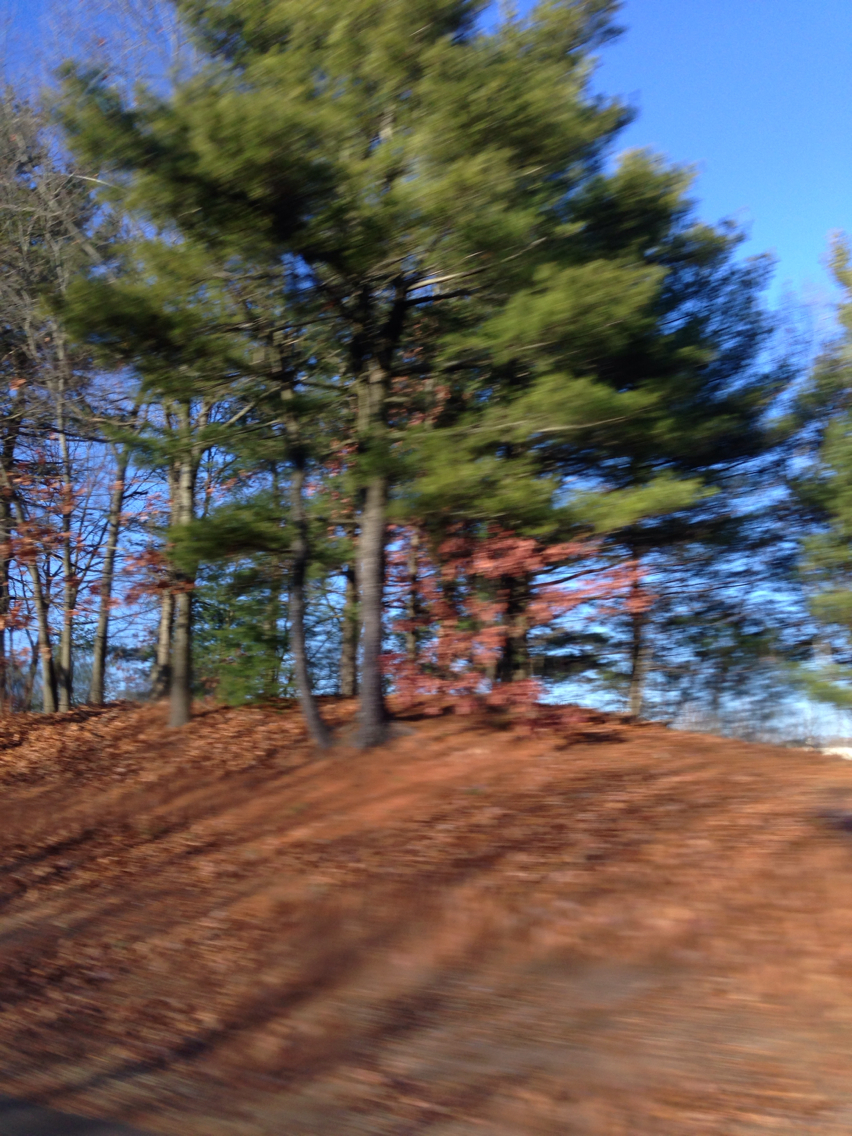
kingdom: Plantae
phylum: Tracheophyta
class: Pinopsida
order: Pinales
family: Pinaceae
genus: Pinus
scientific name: Pinus strobus
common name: Weymouth pine
